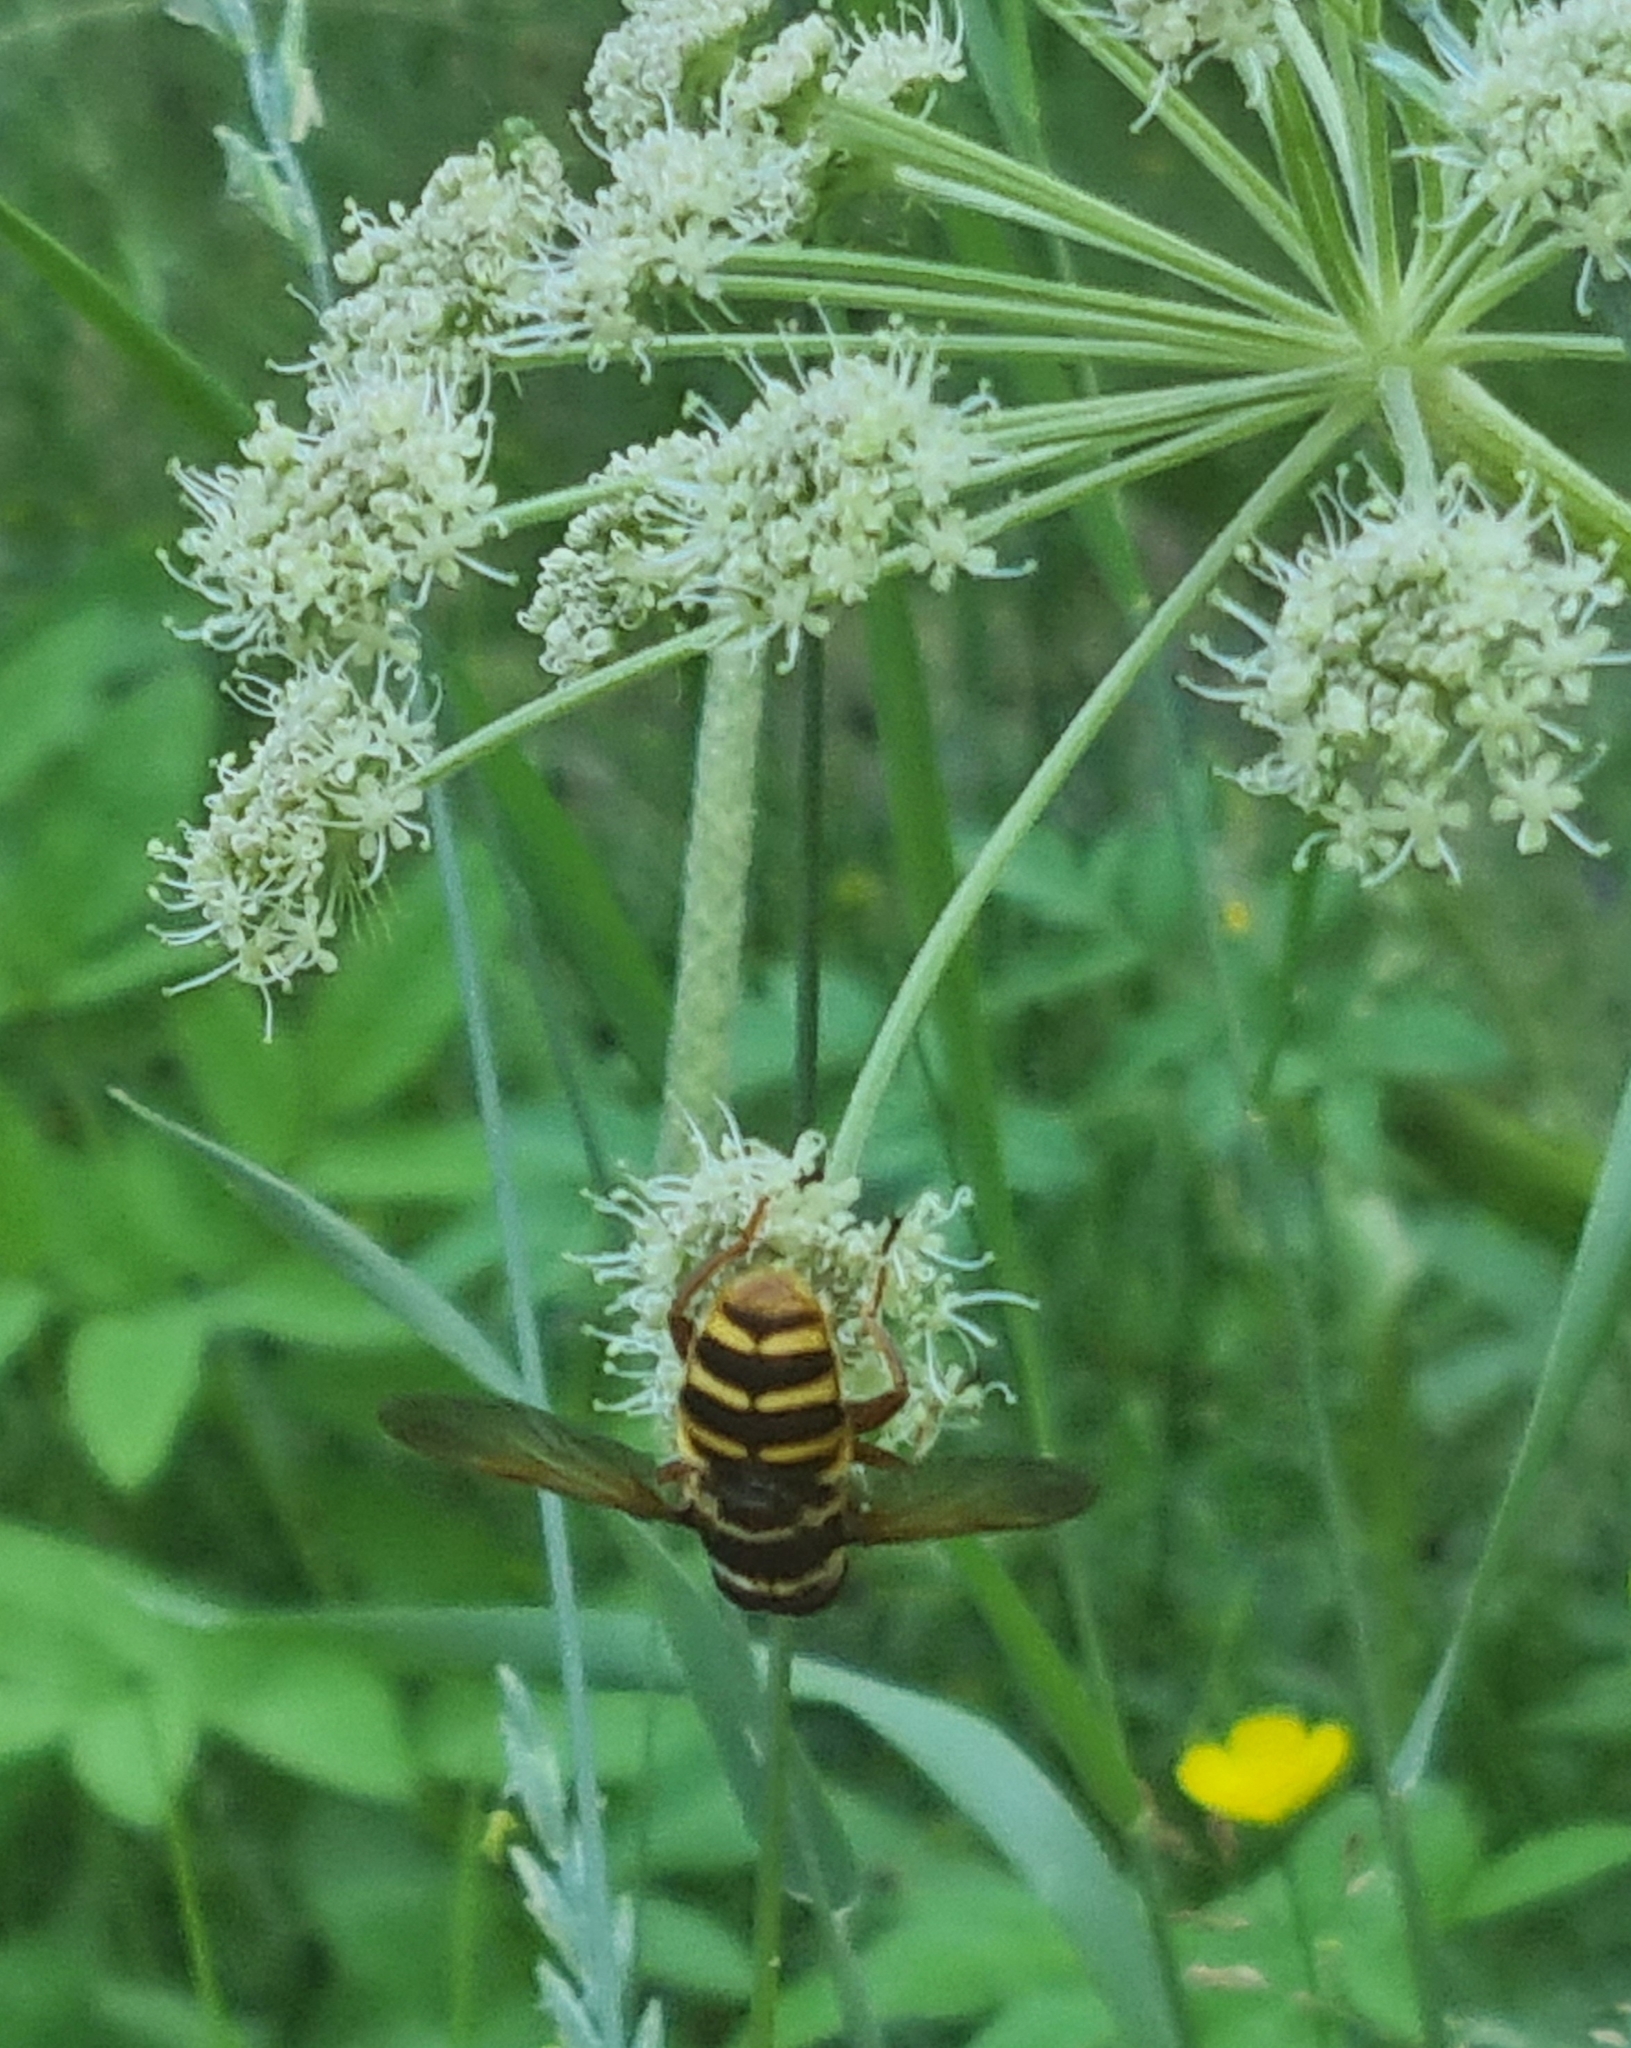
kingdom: Animalia
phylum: Arthropoda
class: Insecta
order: Diptera
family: Syrphidae
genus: Sericomyia
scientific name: Sericomyia silentis
